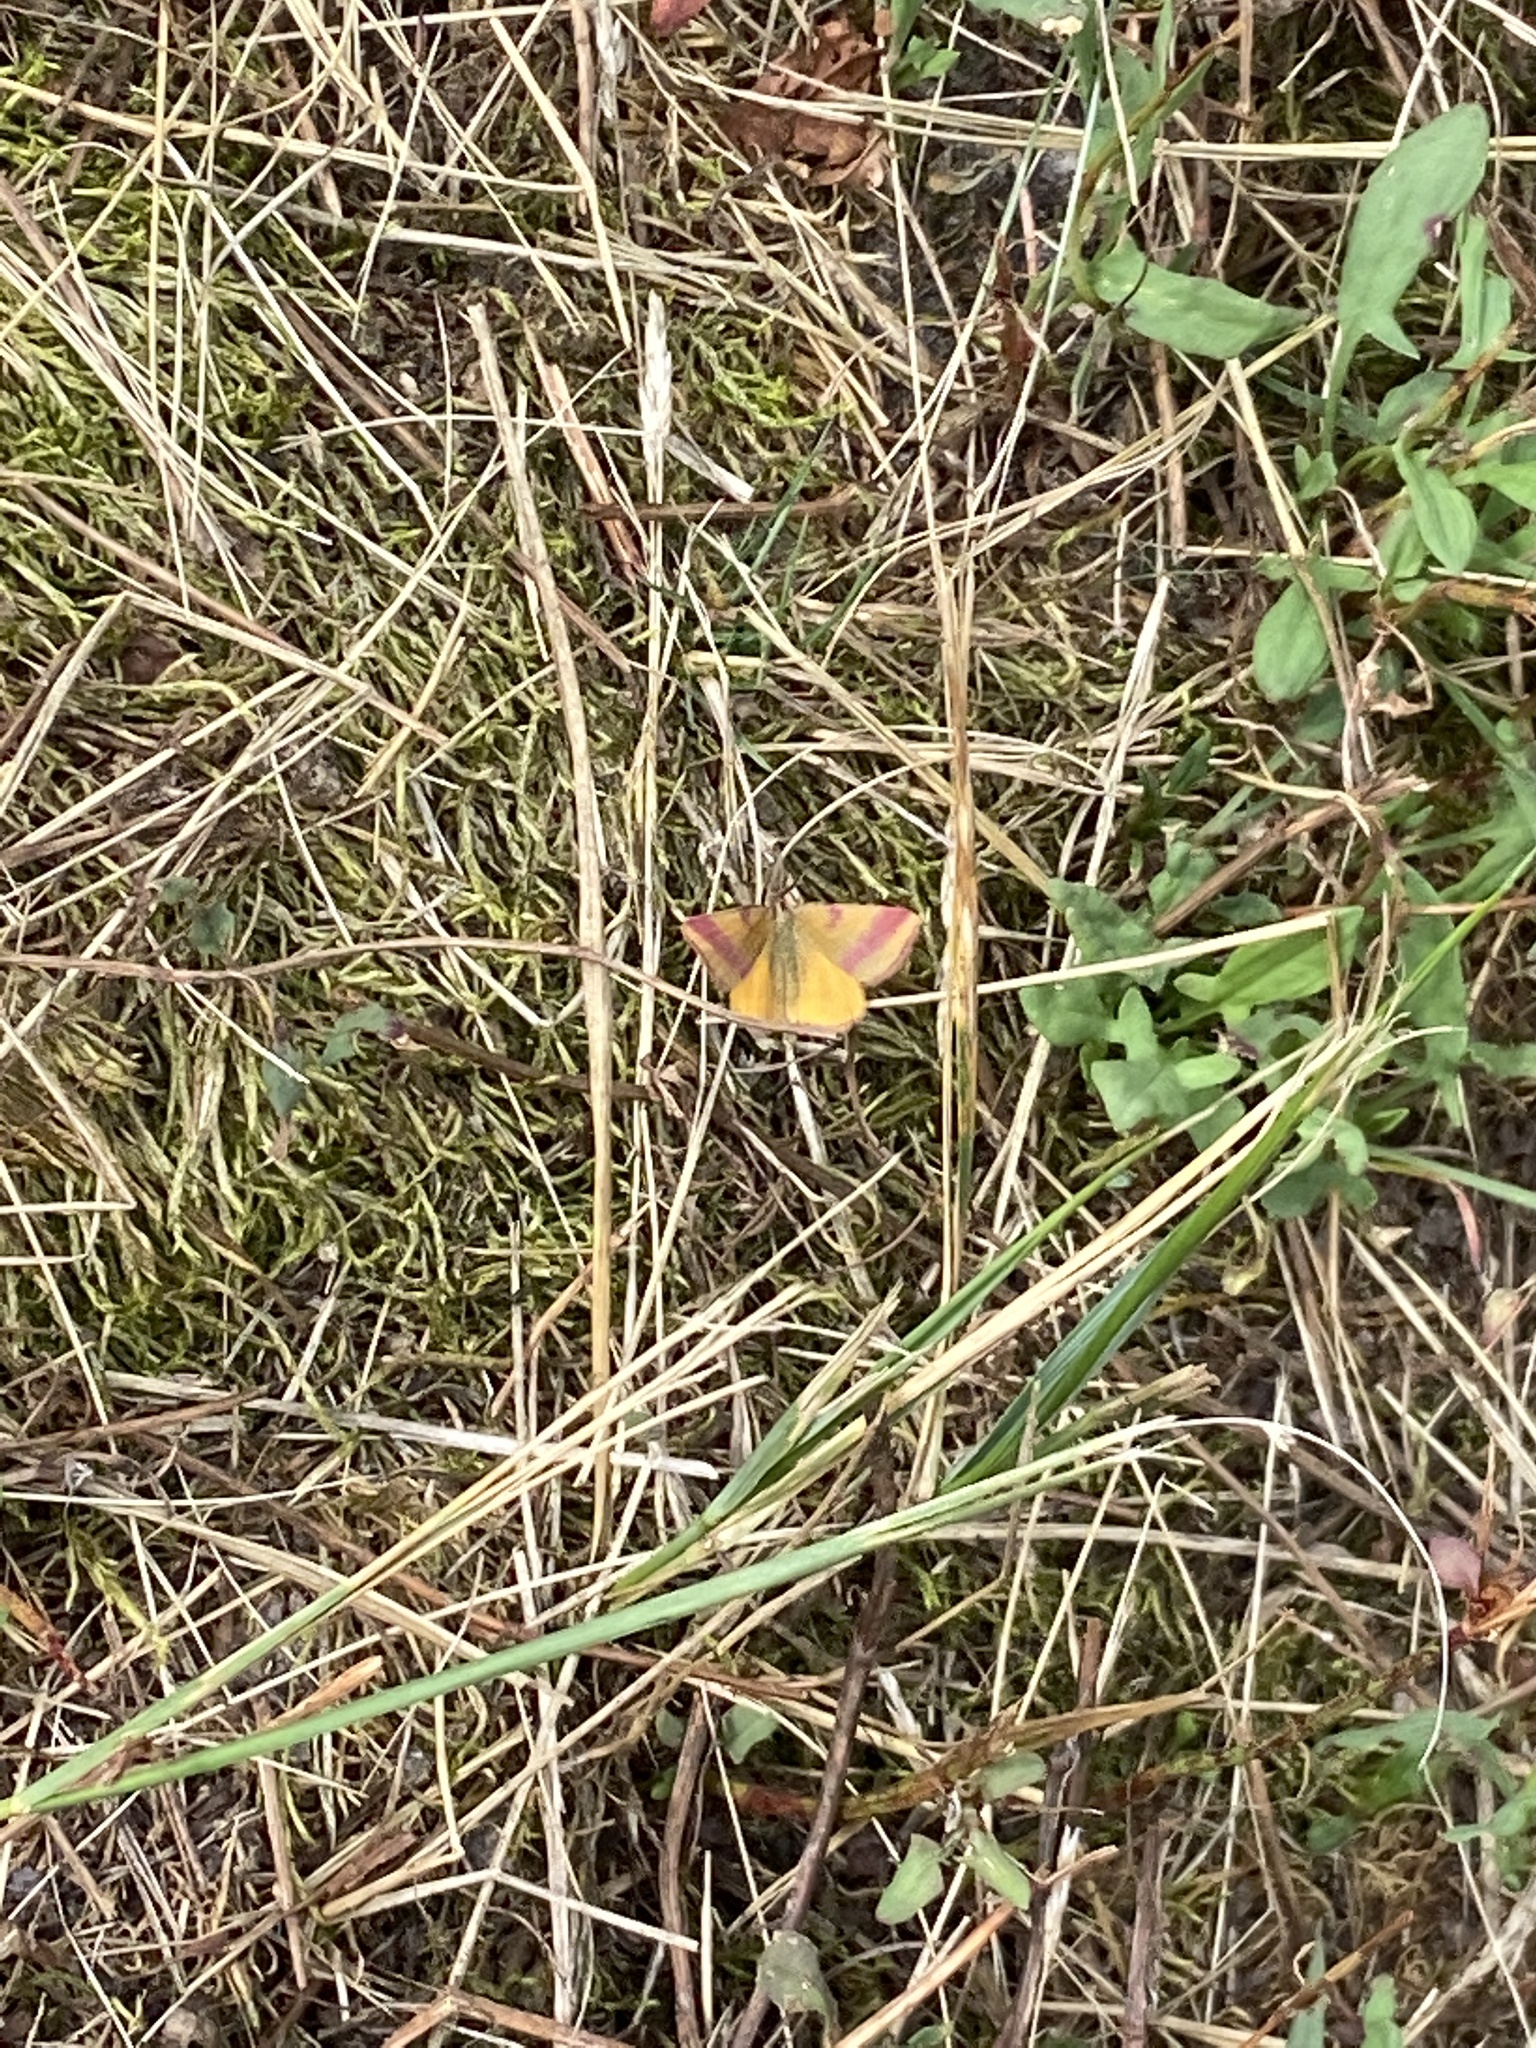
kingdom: Animalia
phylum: Arthropoda
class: Insecta
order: Lepidoptera
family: Geometridae
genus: Lythria
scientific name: Lythria cruentaria
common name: Purple-barred yellow
